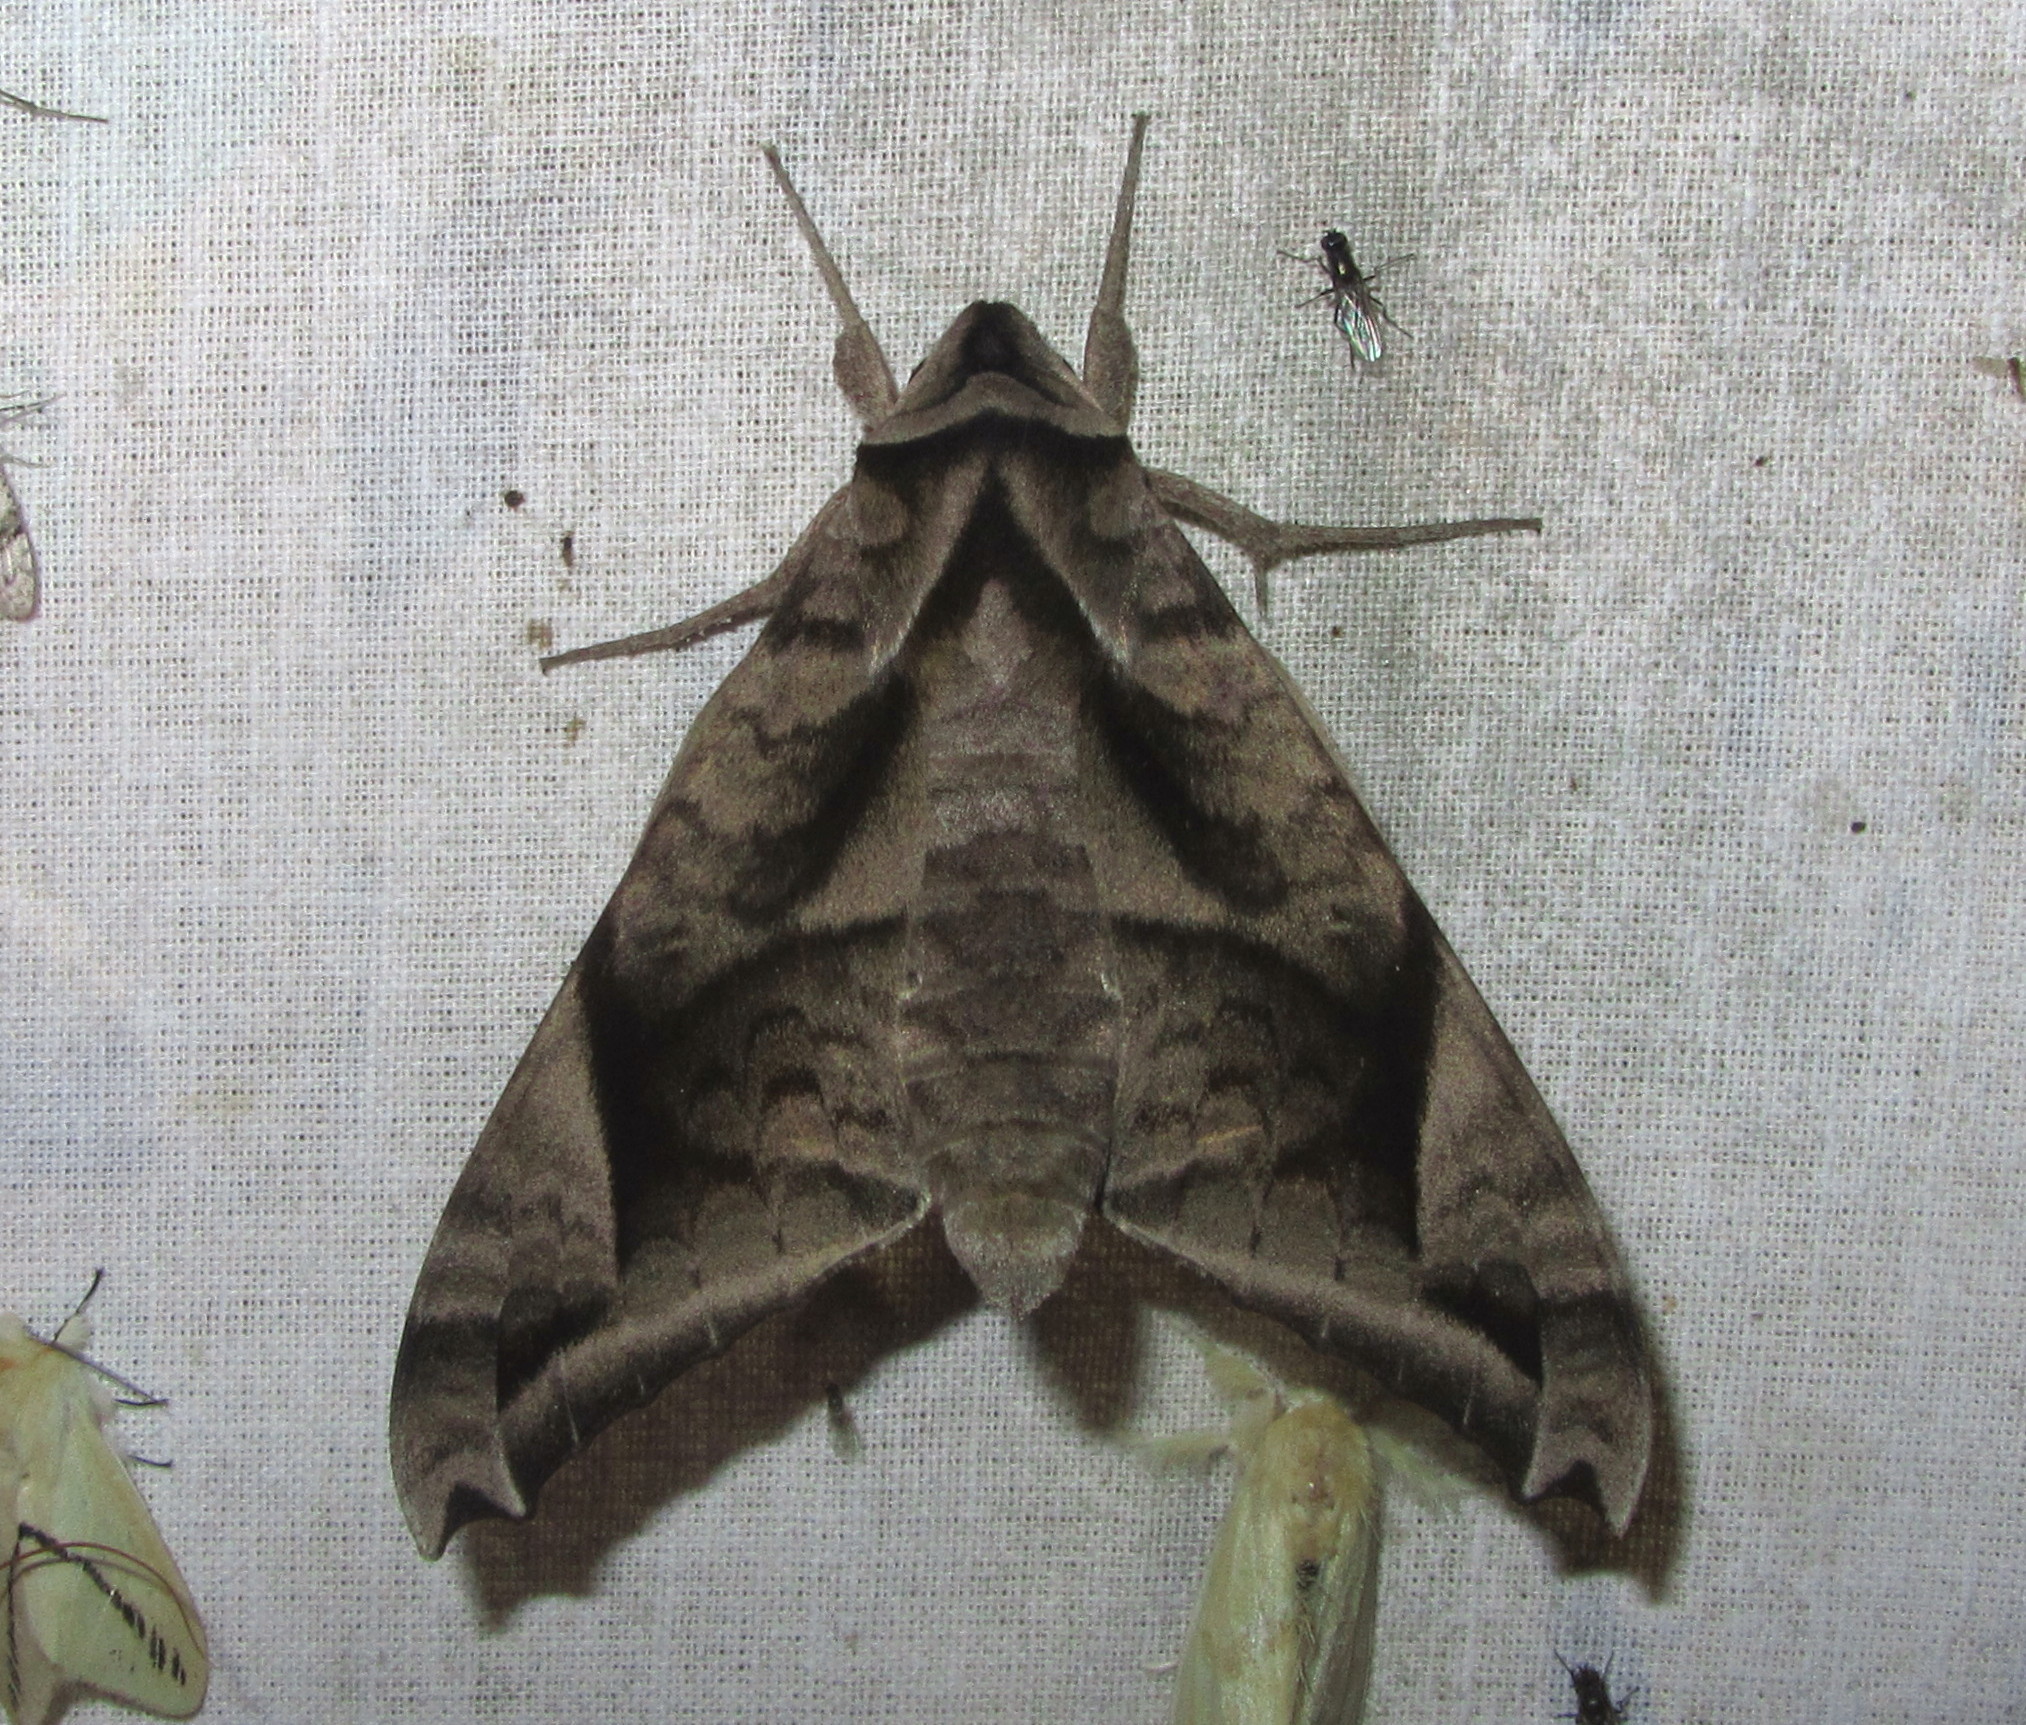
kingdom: Animalia
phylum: Arthropoda
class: Insecta
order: Lepidoptera
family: Sphingidae
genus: Acosmeryx
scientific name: Acosmeryx naga
